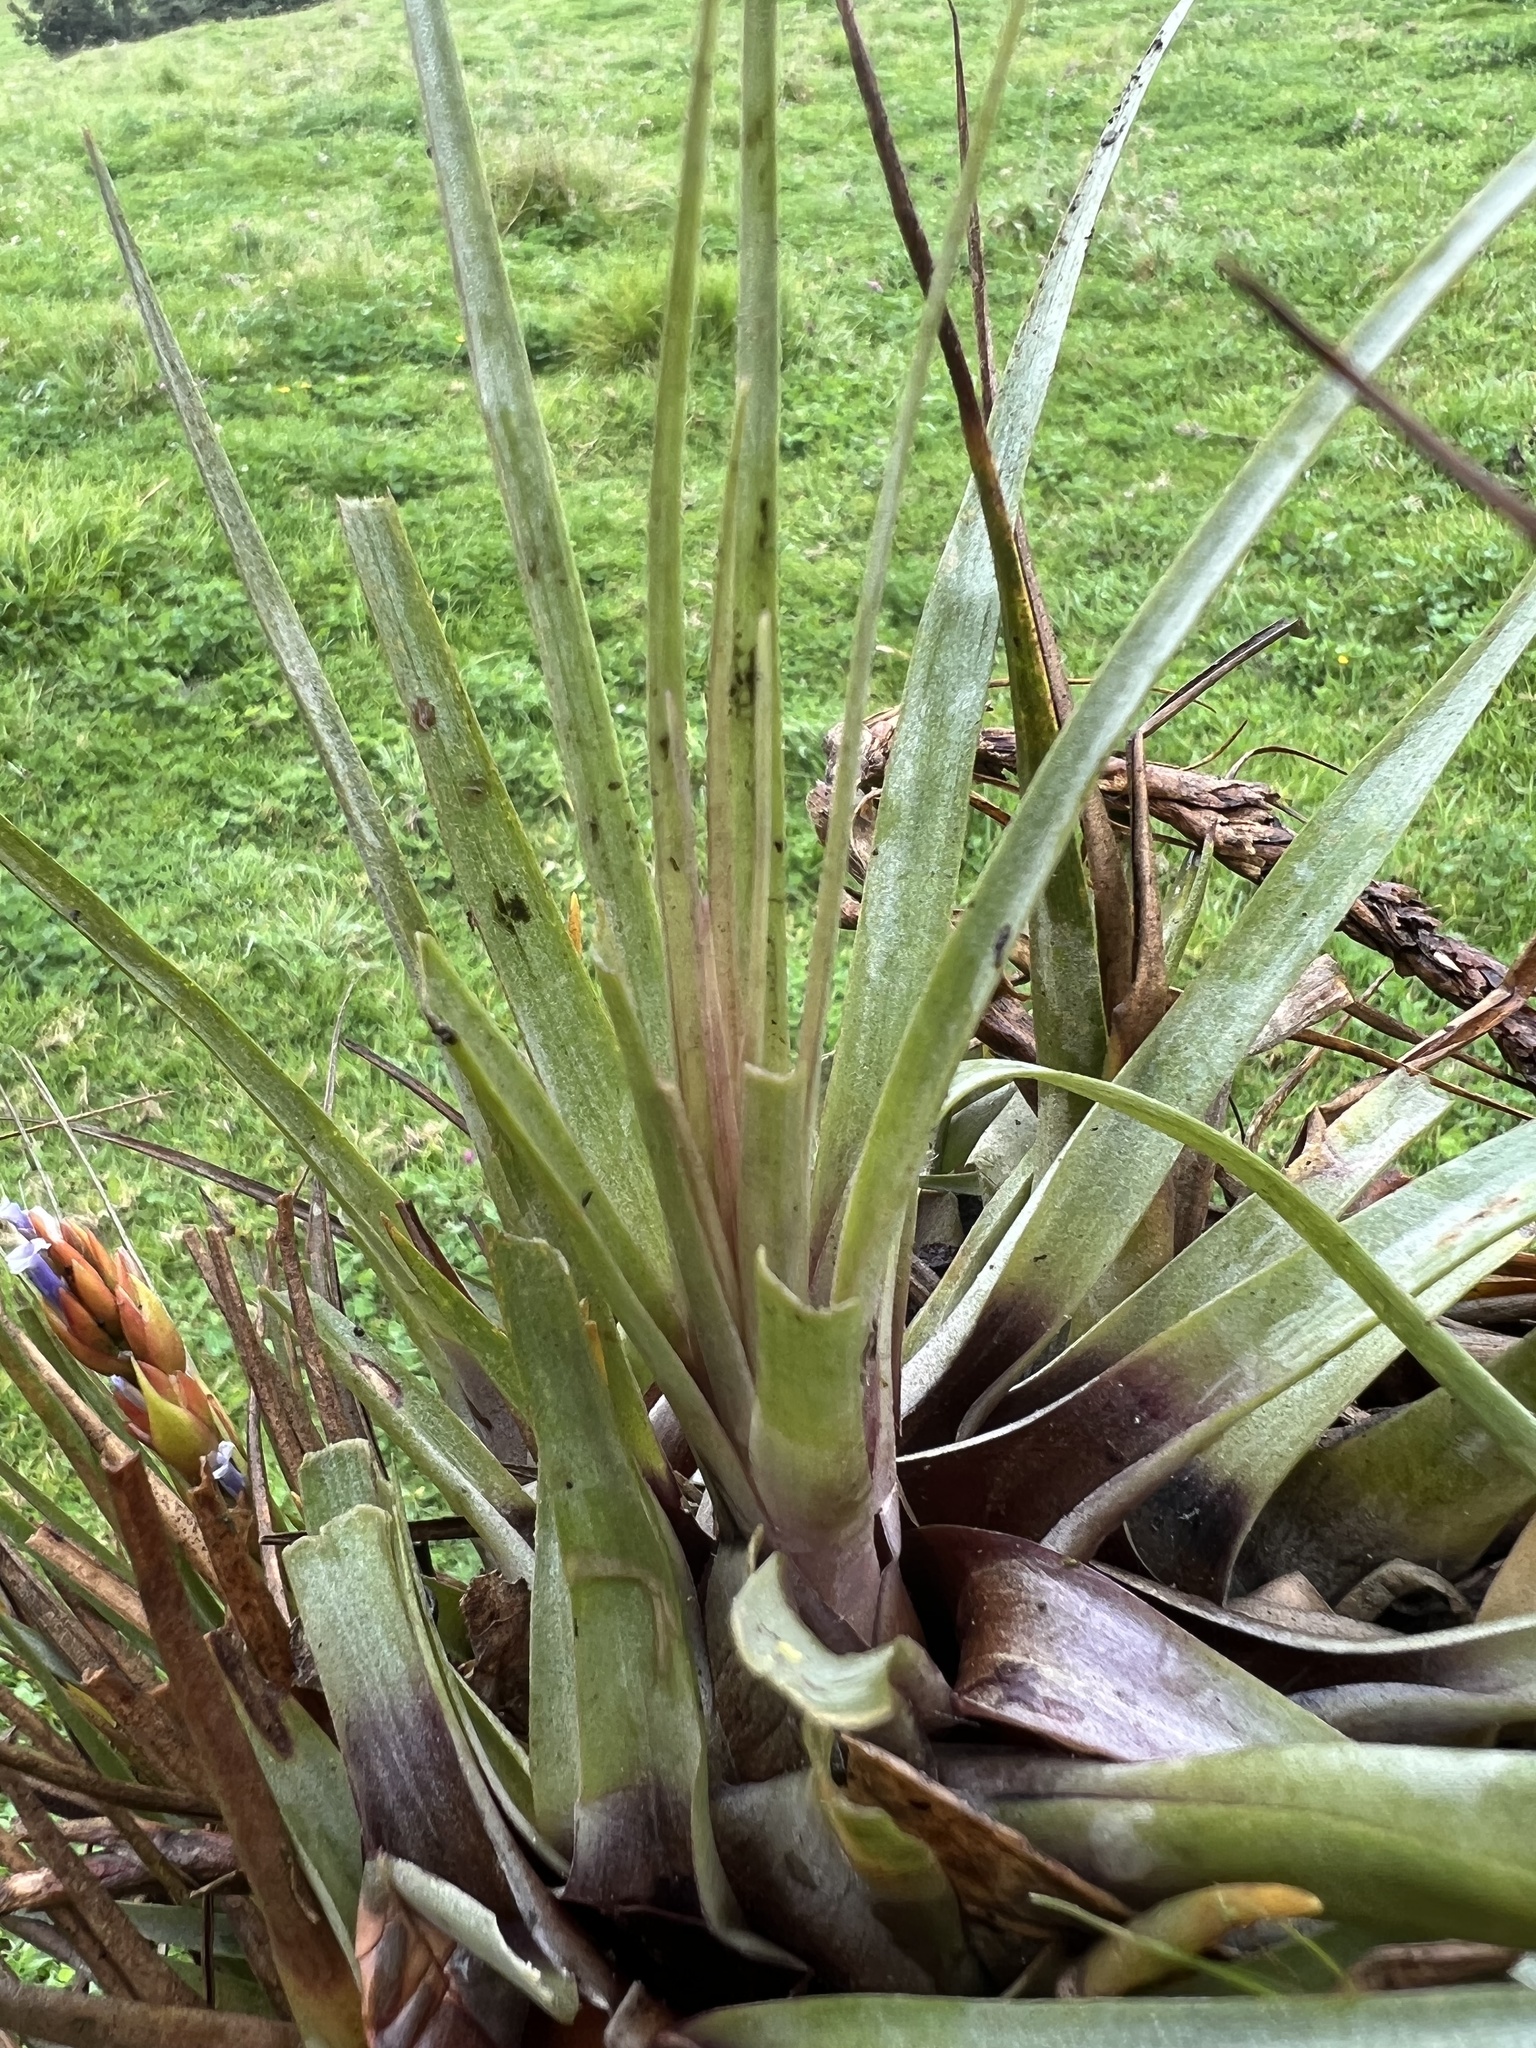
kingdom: Plantae
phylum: Tracheophyta
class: Liliopsida
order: Poales
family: Bromeliaceae
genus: Tillandsia
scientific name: Tillandsia fragrans
